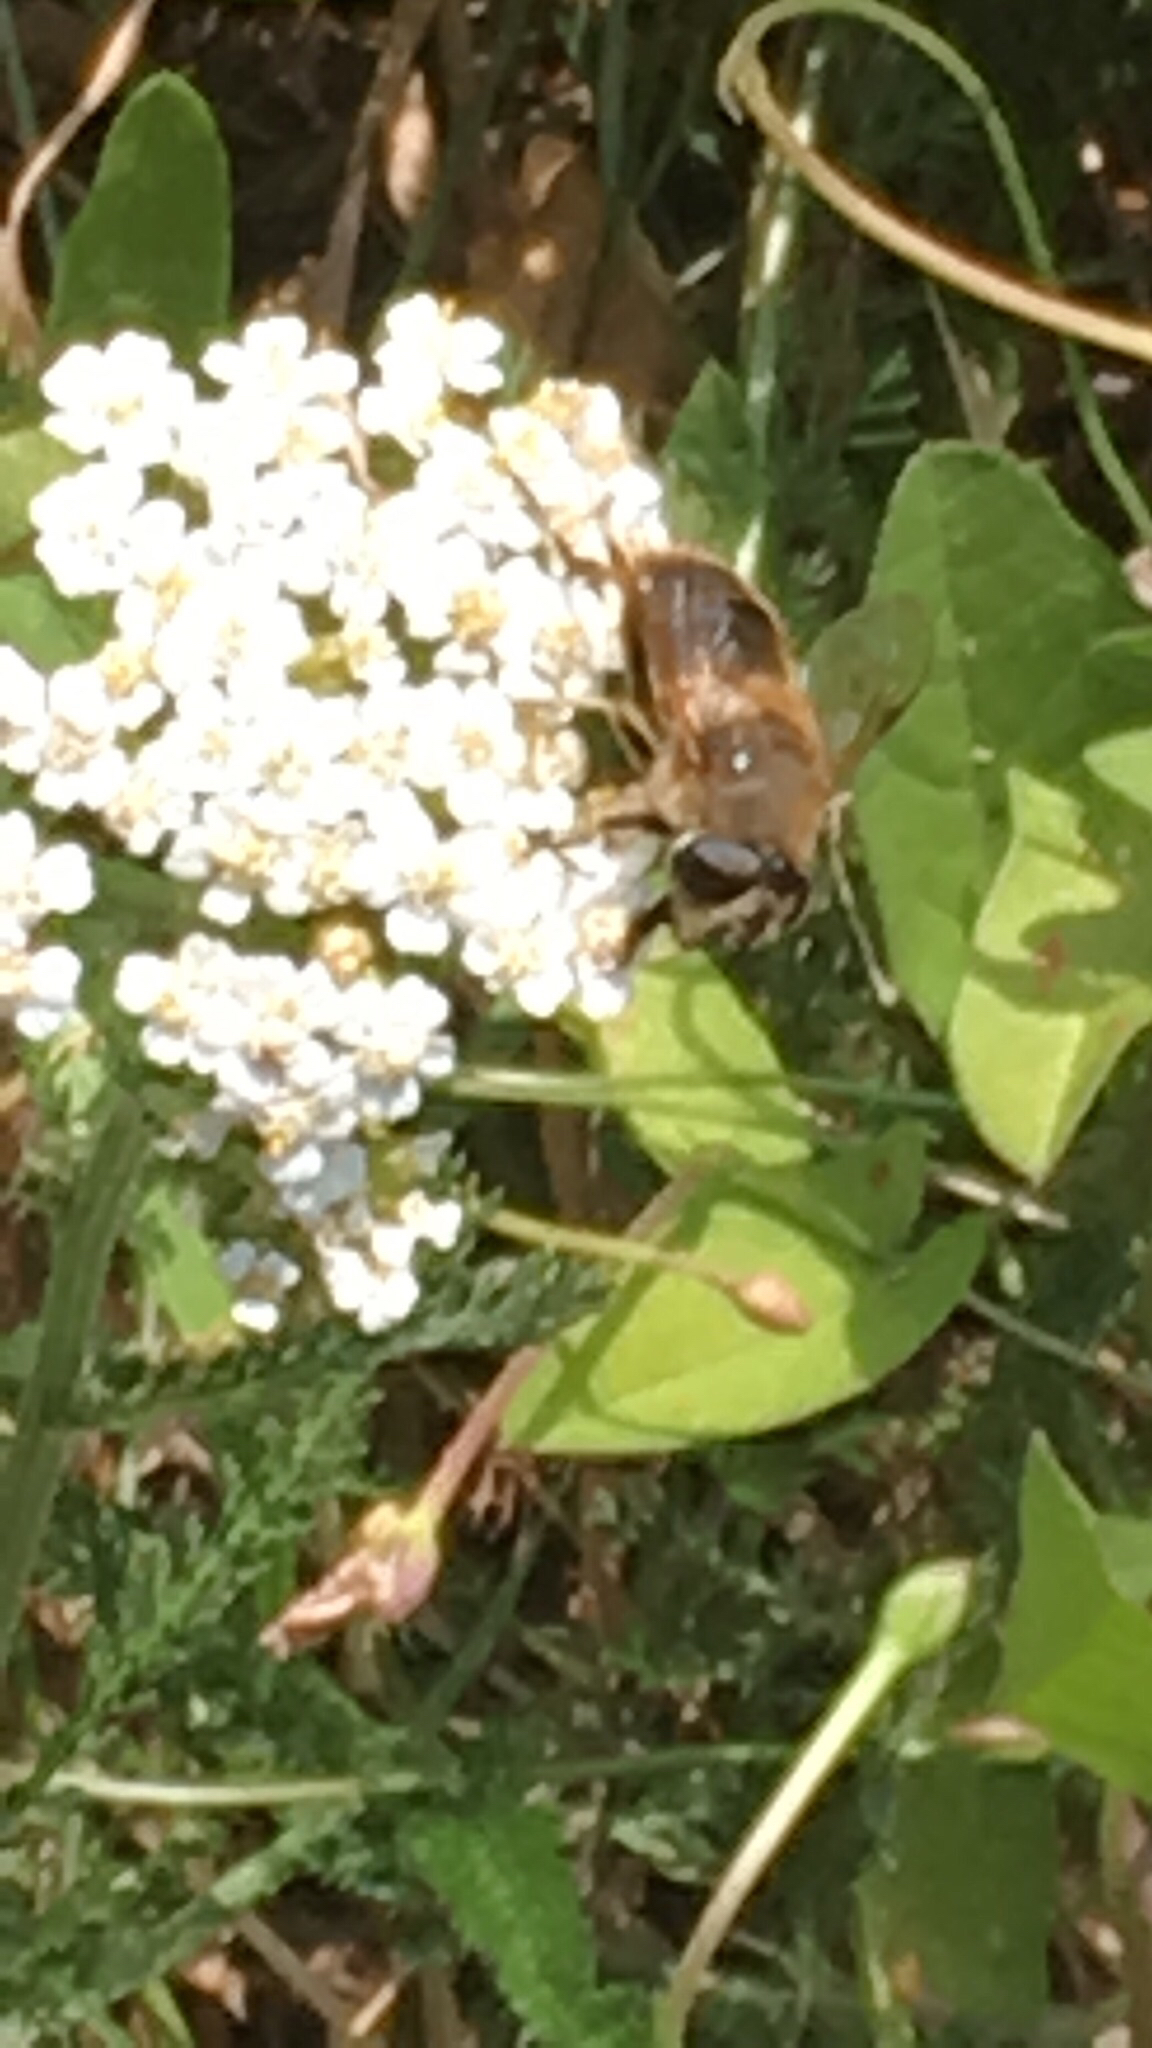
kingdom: Animalia
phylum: Arthropoda
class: Insecta
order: Diptera
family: Syrphidae
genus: Eristalis
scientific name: Eristalis tenax
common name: Drone fly
